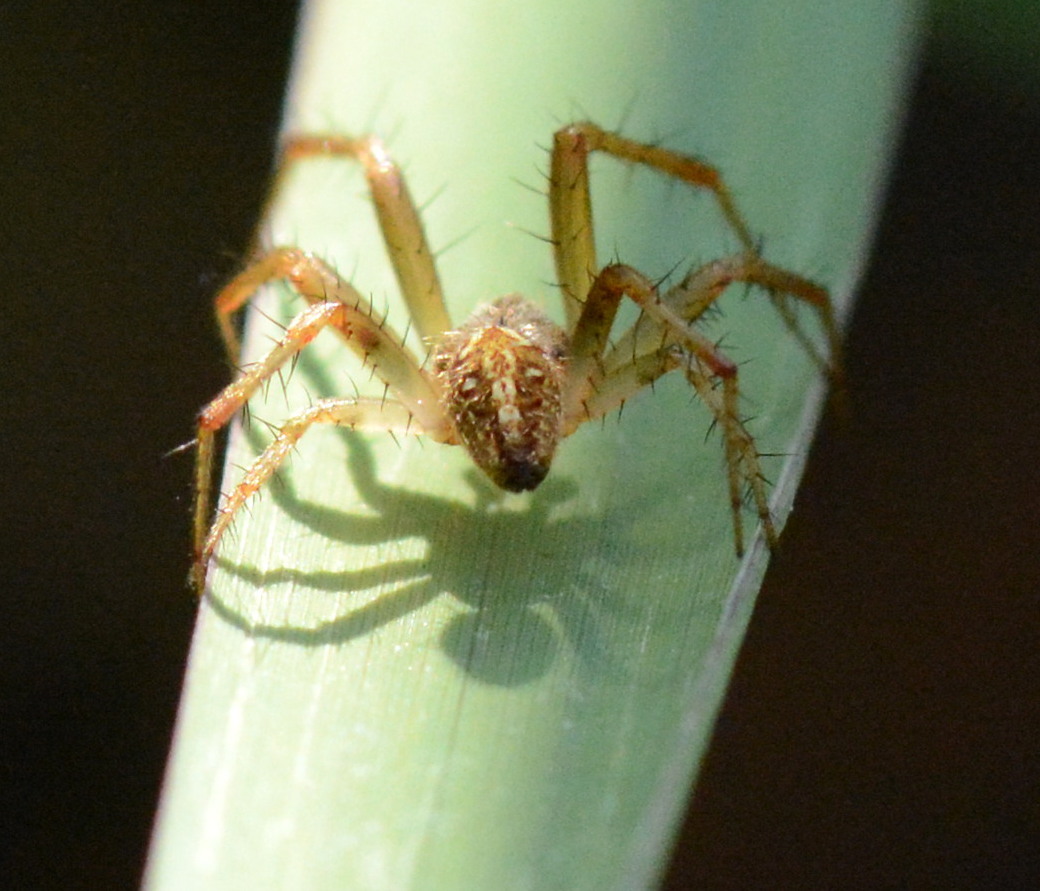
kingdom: Animalia
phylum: Arthropoda
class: Arachnida
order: Araneae
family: Araneidae
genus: Neoscona
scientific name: Neoscona arabesca
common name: Orb weavers
